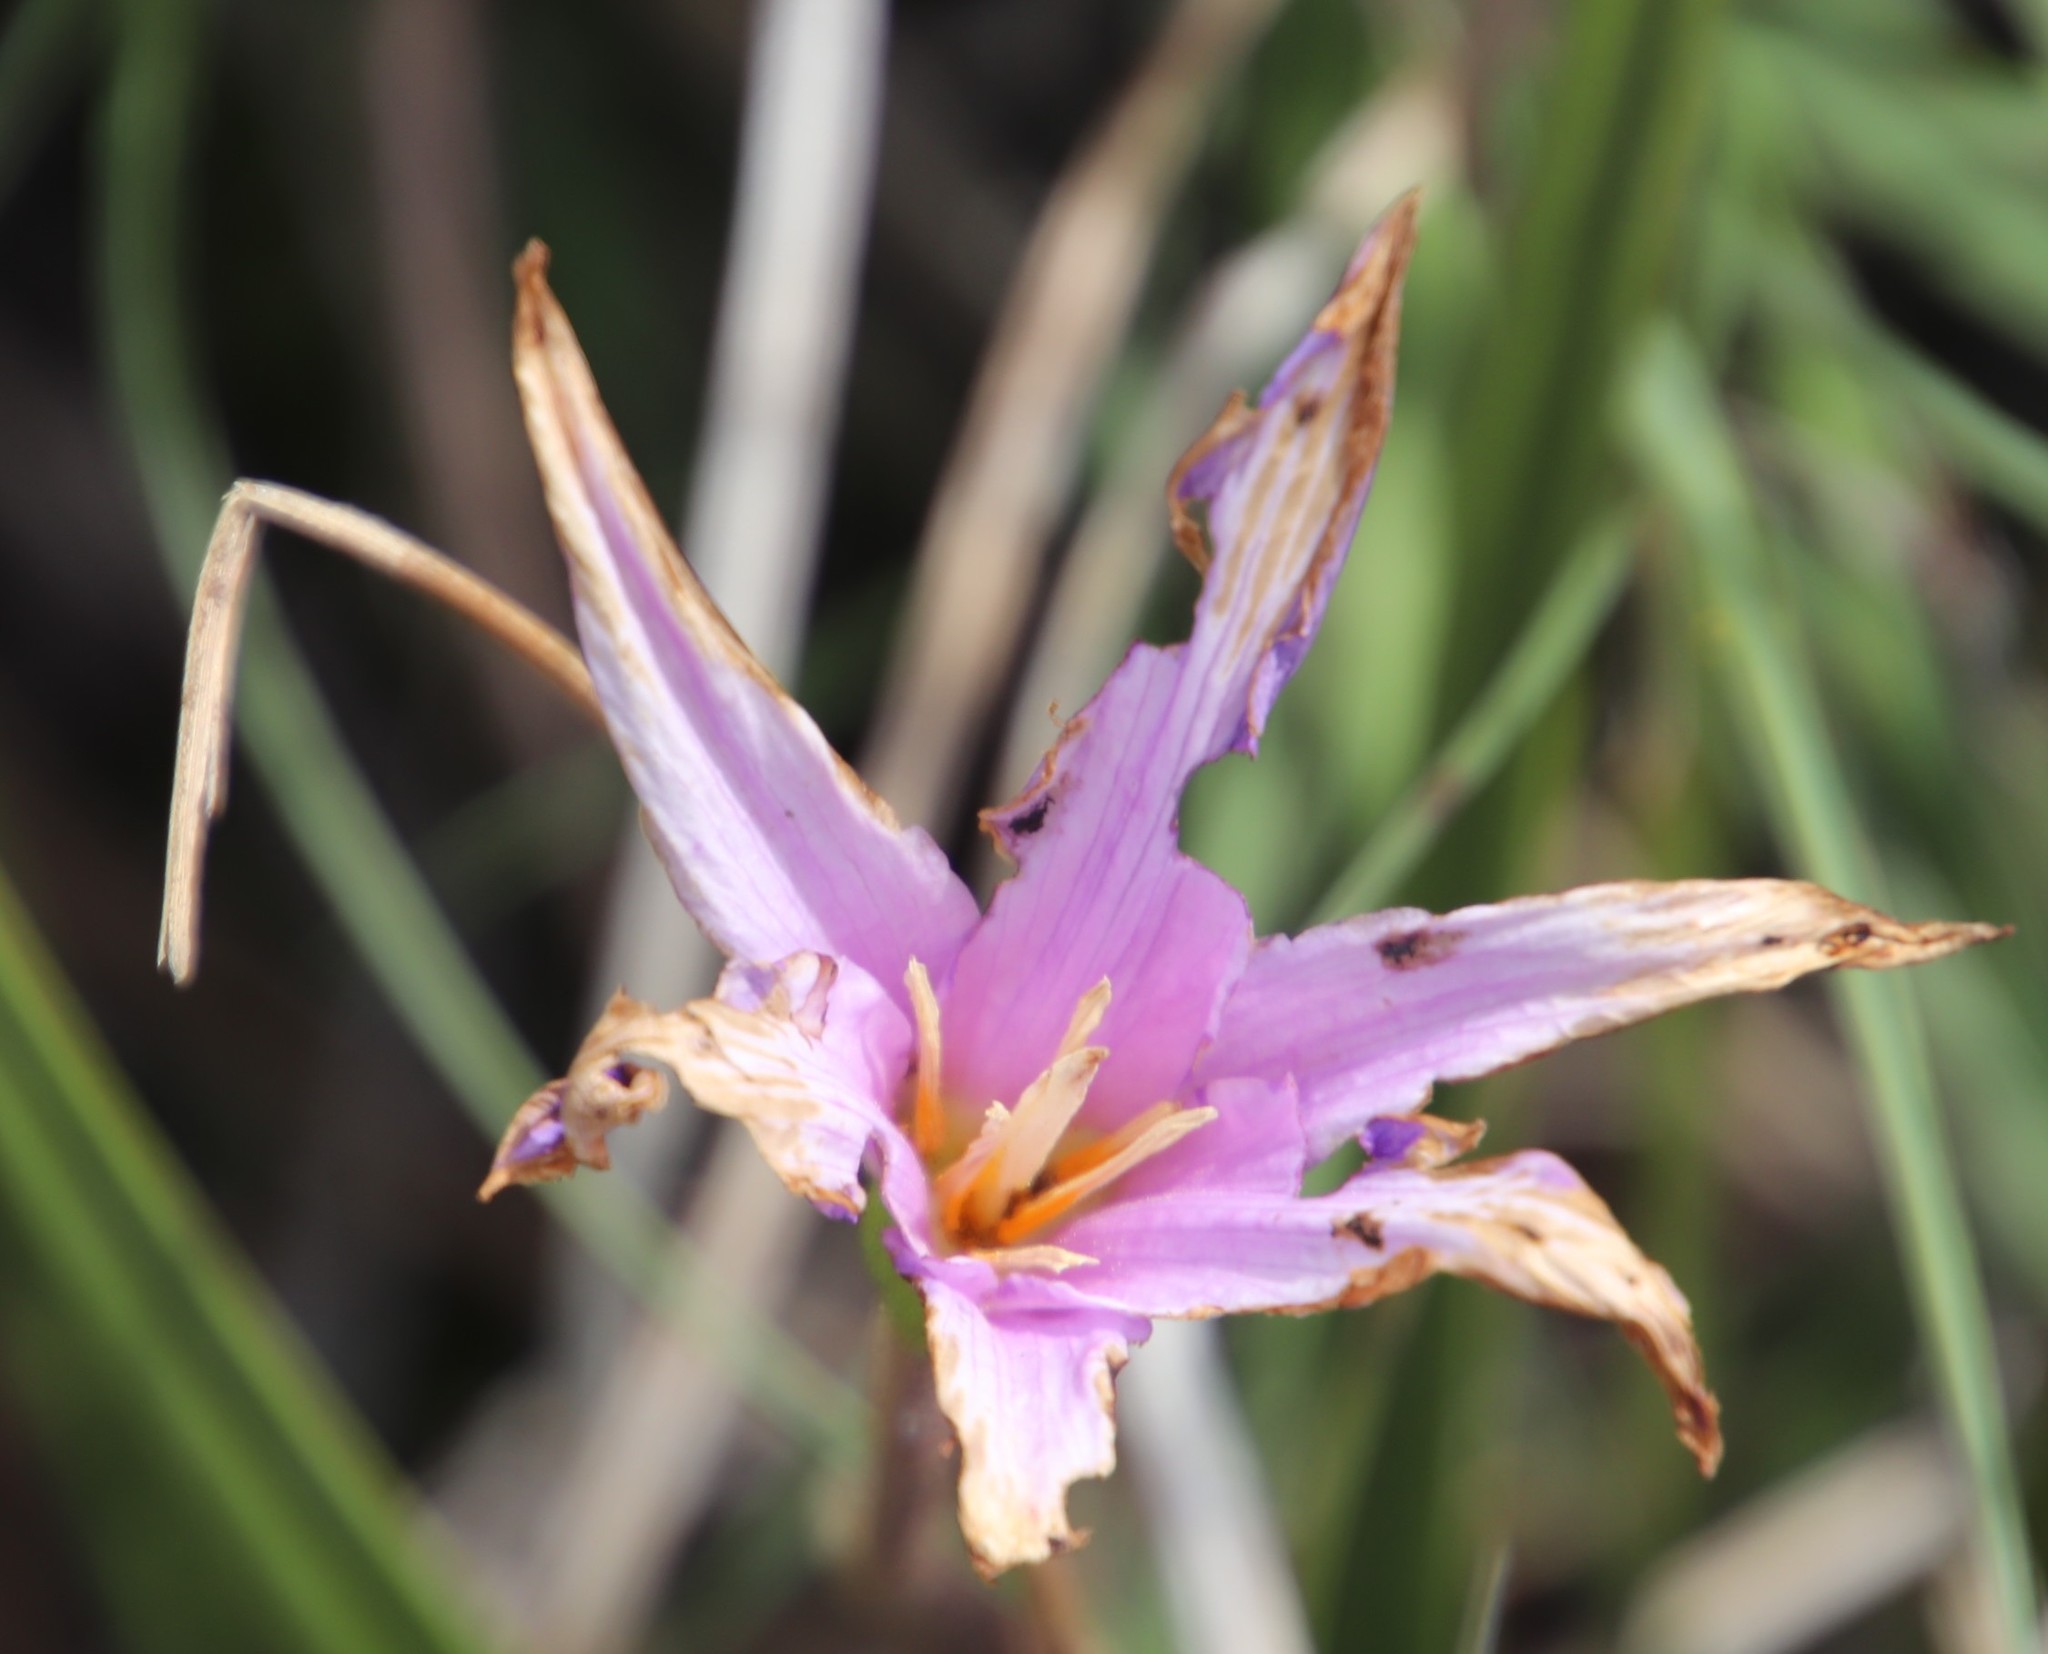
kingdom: Plantae
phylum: Tracheophyta
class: Liliopsida
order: Pandanales
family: Velloziaceae
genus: Xerophyta
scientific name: Xerophyta viscosa
